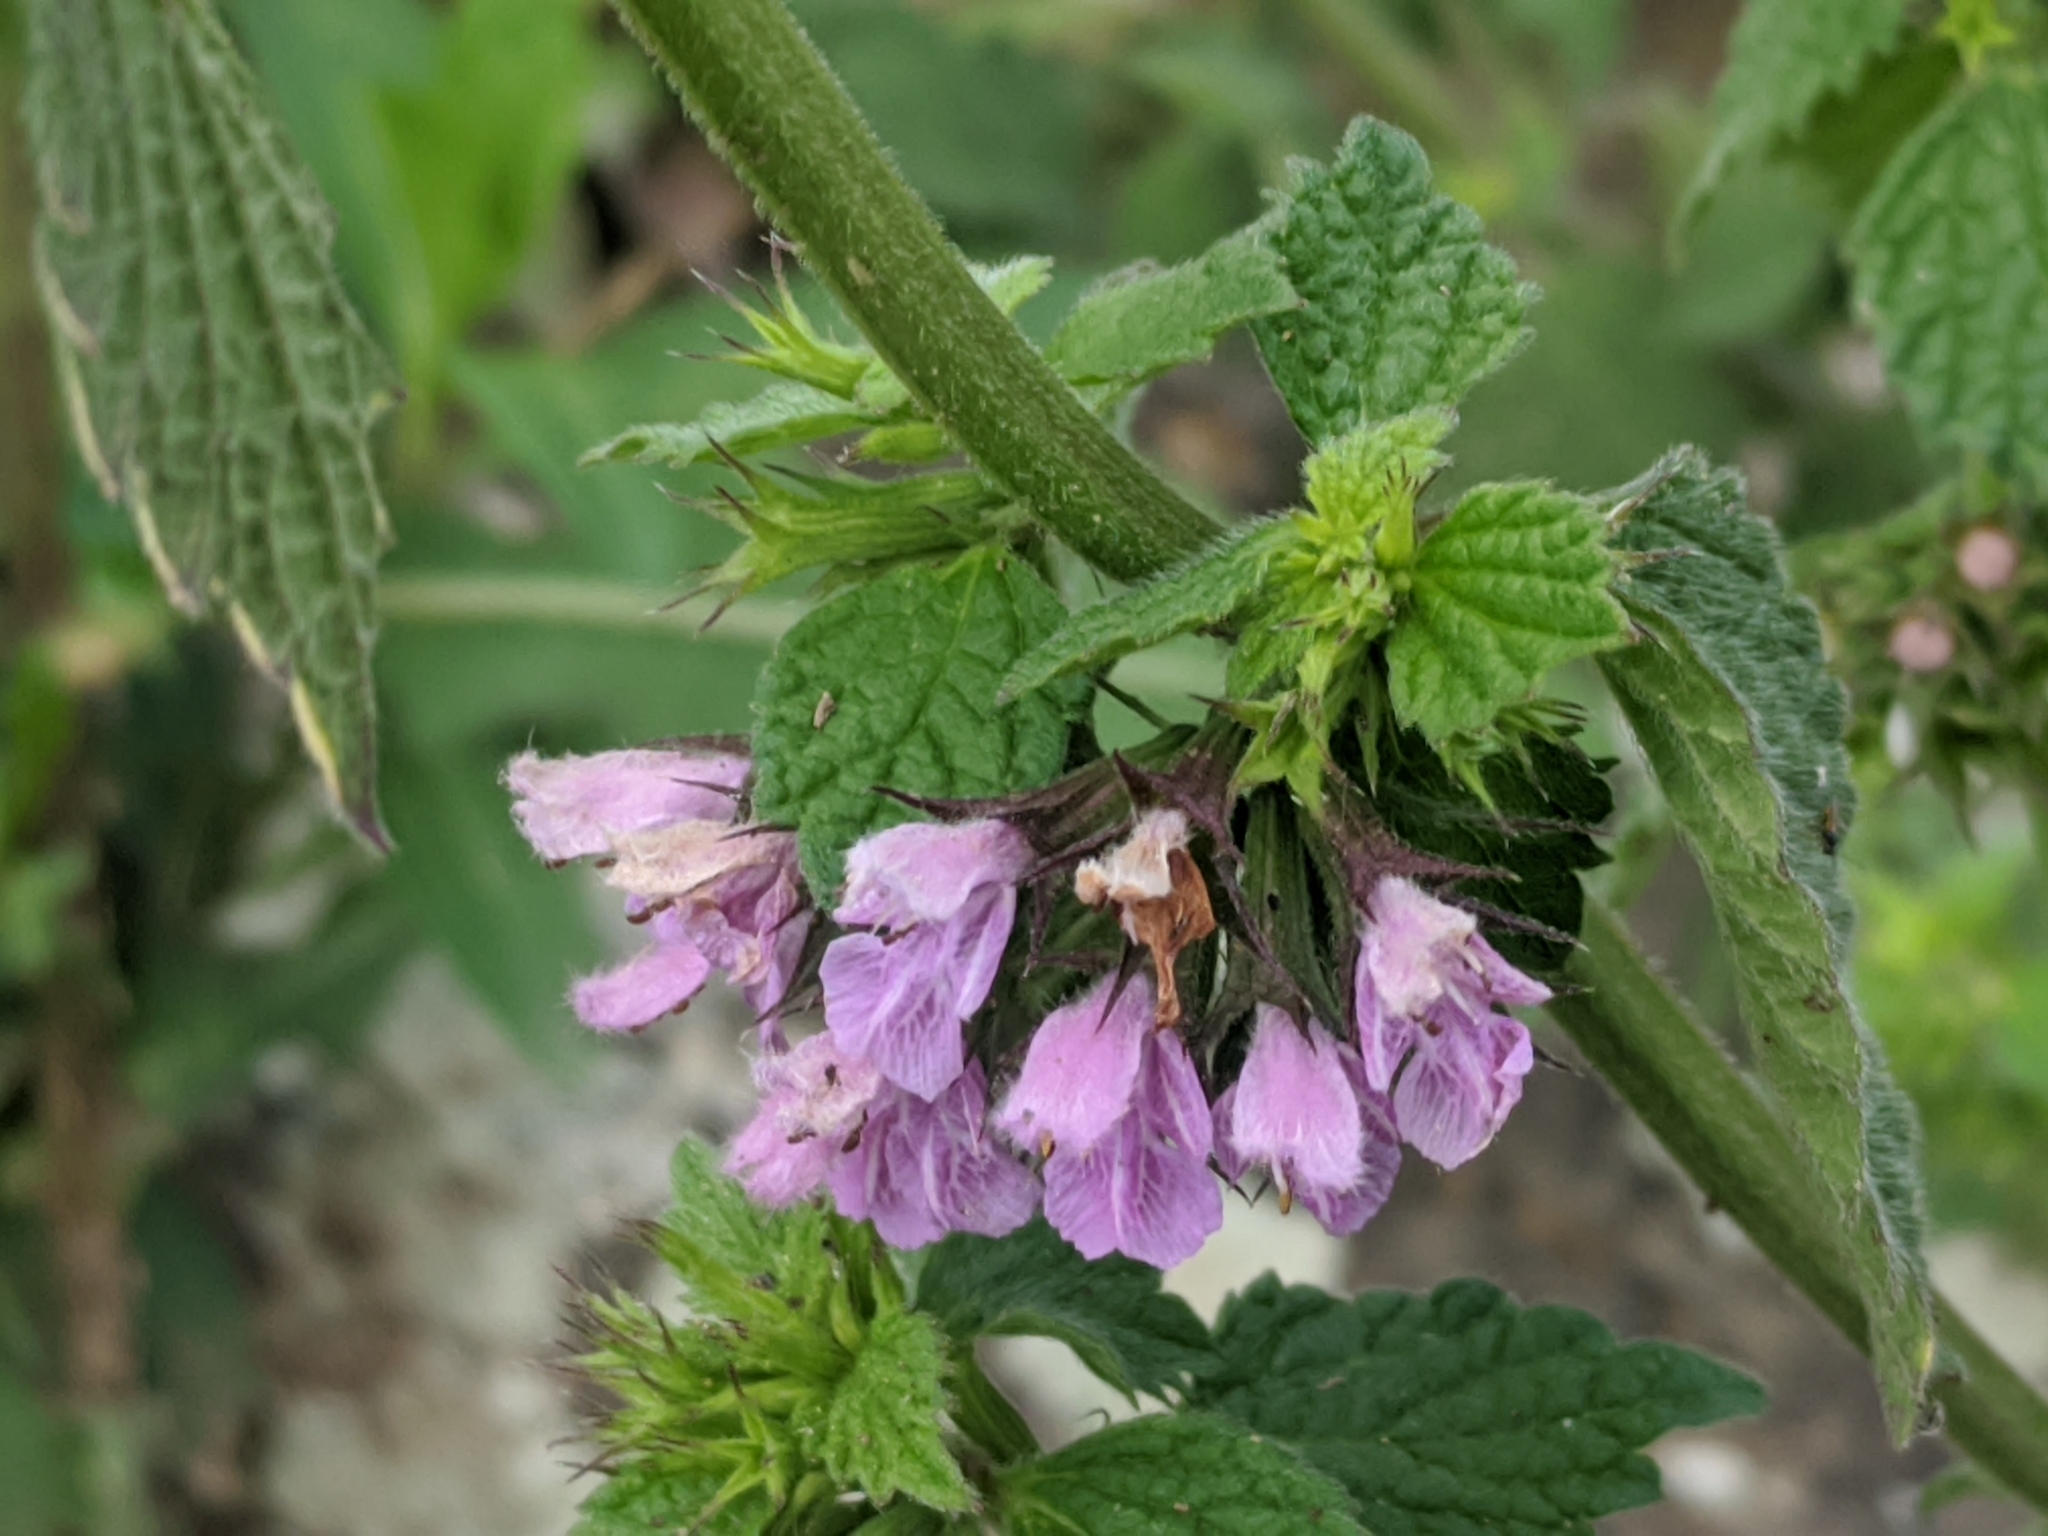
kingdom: Plantae
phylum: Tracheophyta
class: Magnoliopsida
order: Lamiales
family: Lamiaceae
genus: Ballota
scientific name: Ballota nigra
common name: Black horehound
